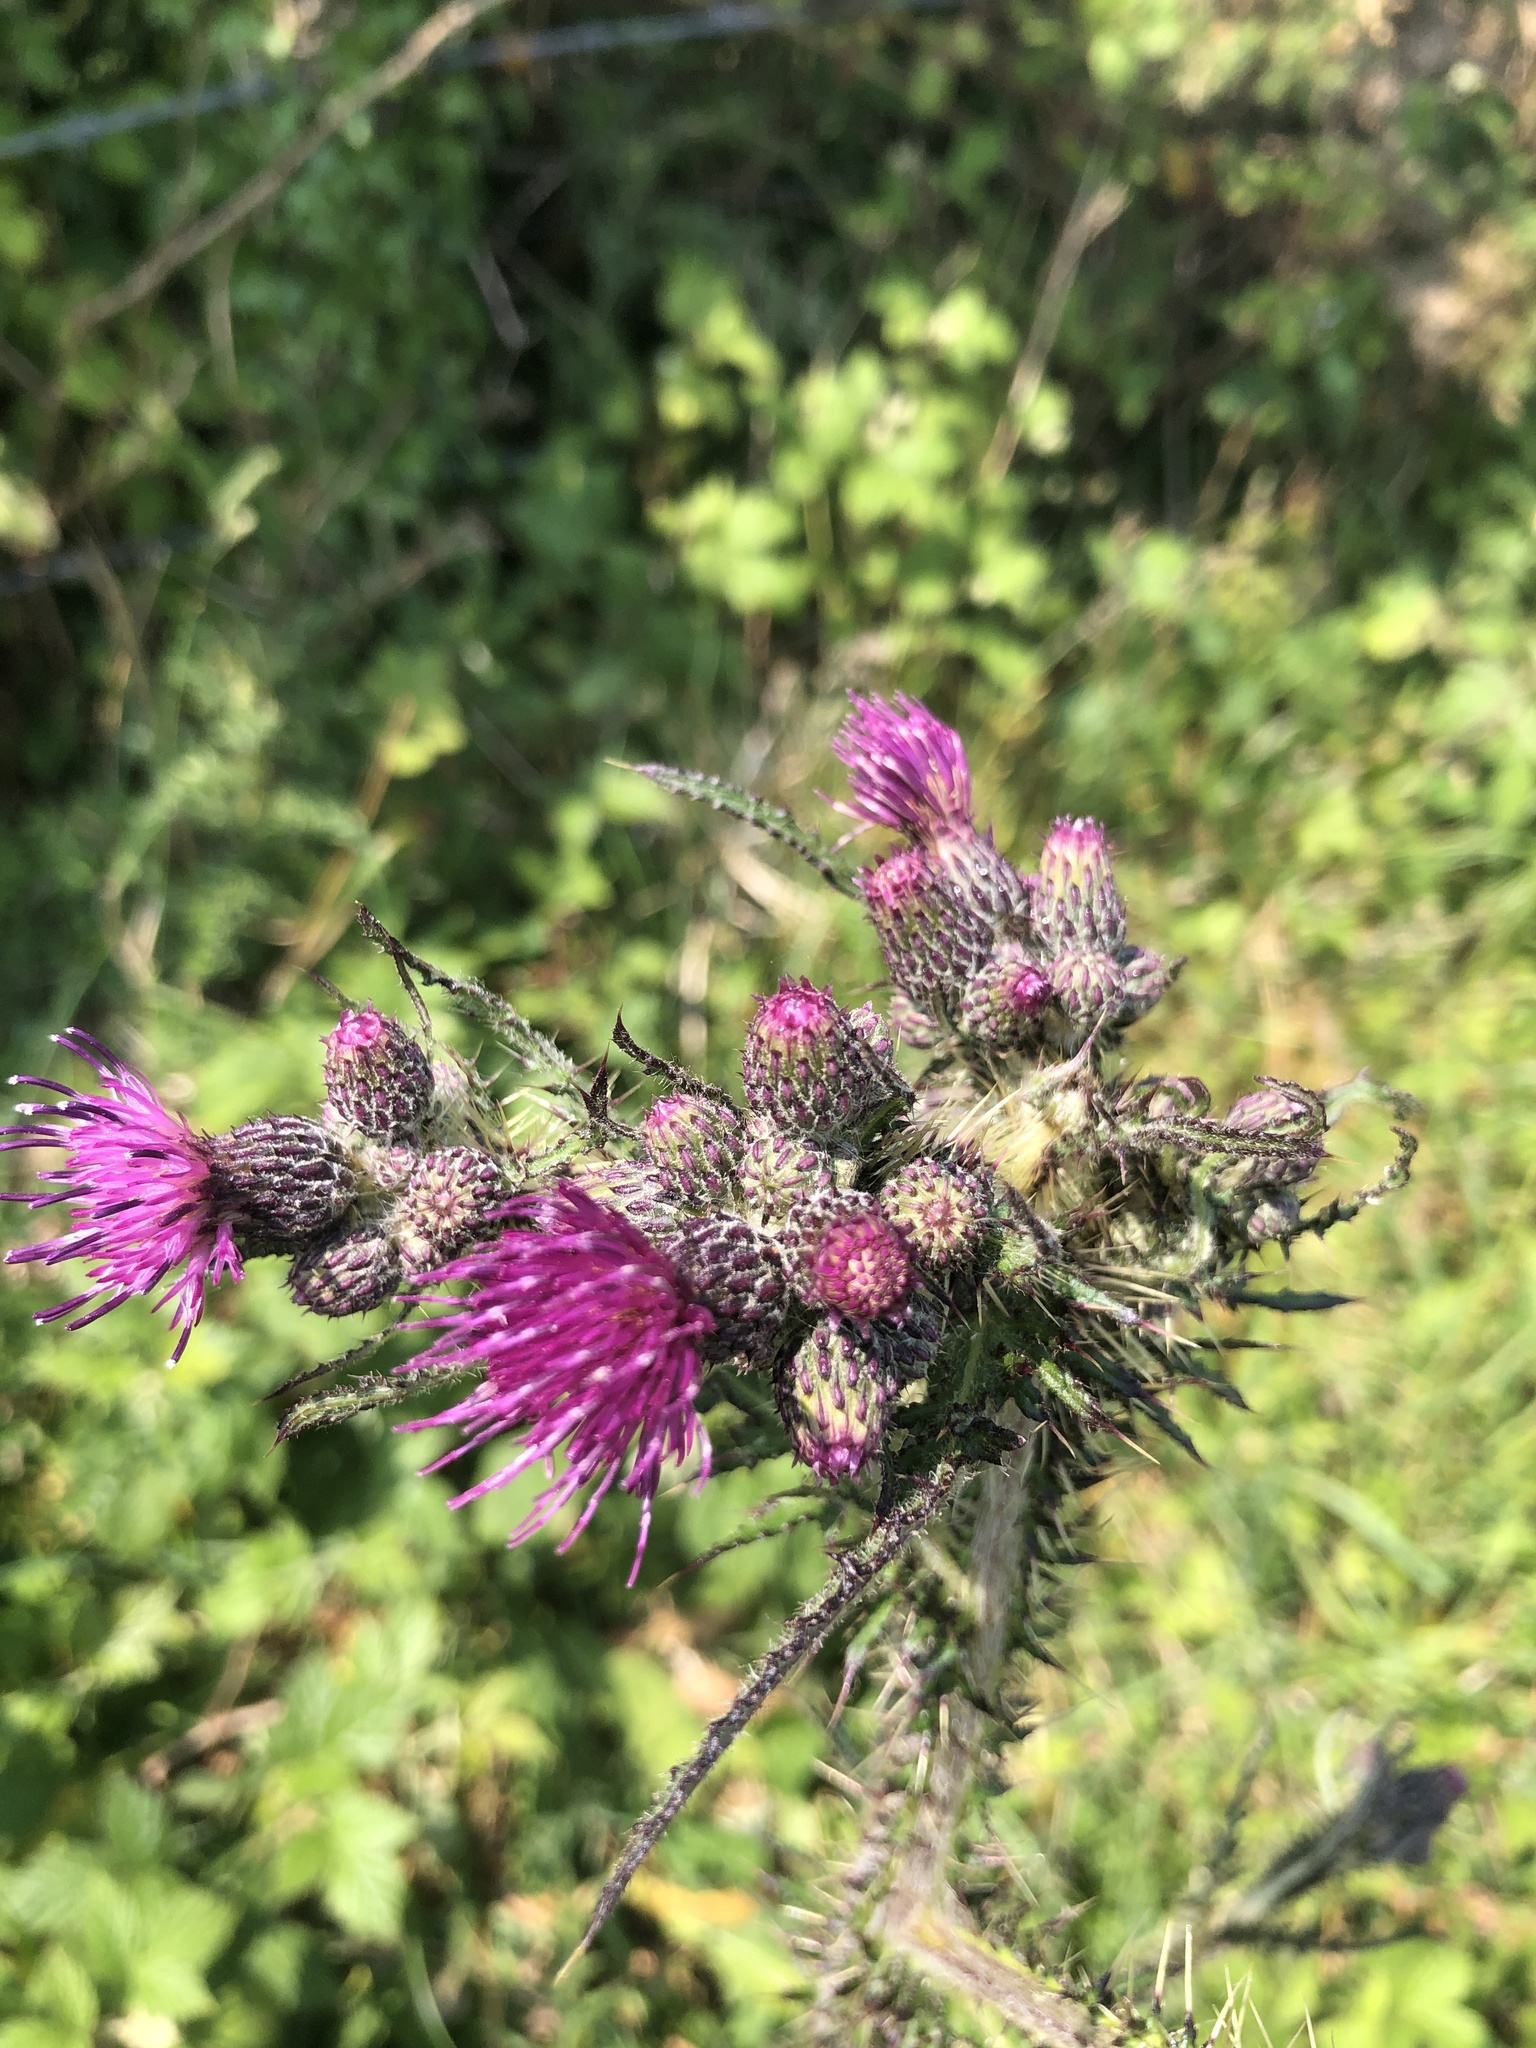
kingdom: Plantae
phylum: Tracheophyta
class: Magnoliopsida
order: Asterales
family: Asteraceae
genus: Cirsium
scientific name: Cirsium palustre
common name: Marsh thistle
